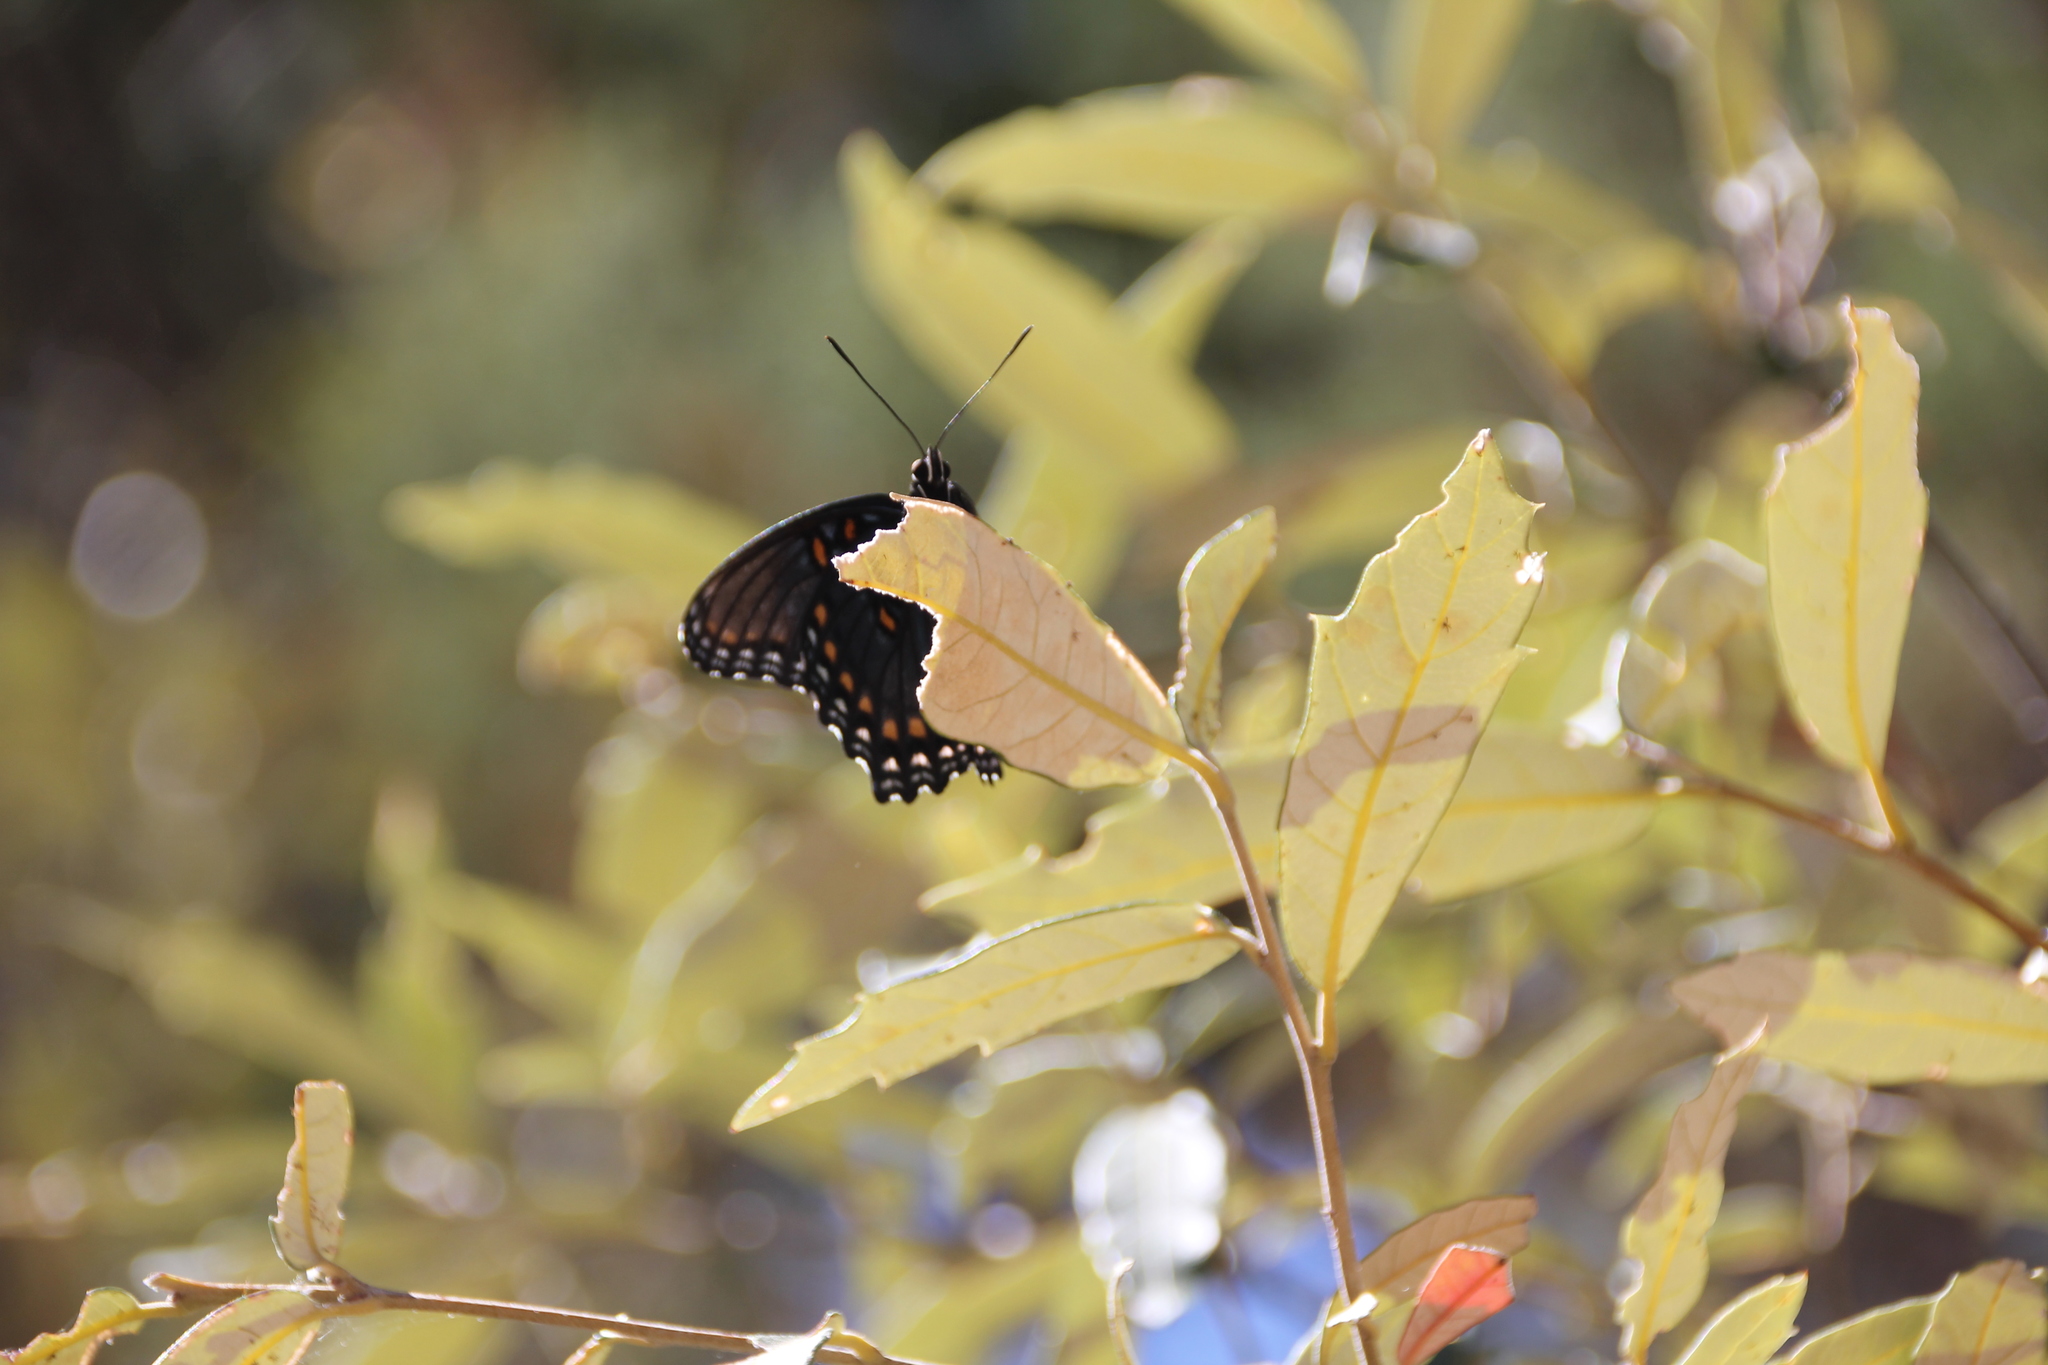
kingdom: Animalia
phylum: Arthropoda
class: Insecta
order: Lepidoptera
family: Nymphalidae
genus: Limenitis
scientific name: Limenitis arthemis
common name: Red-spotted admiral
